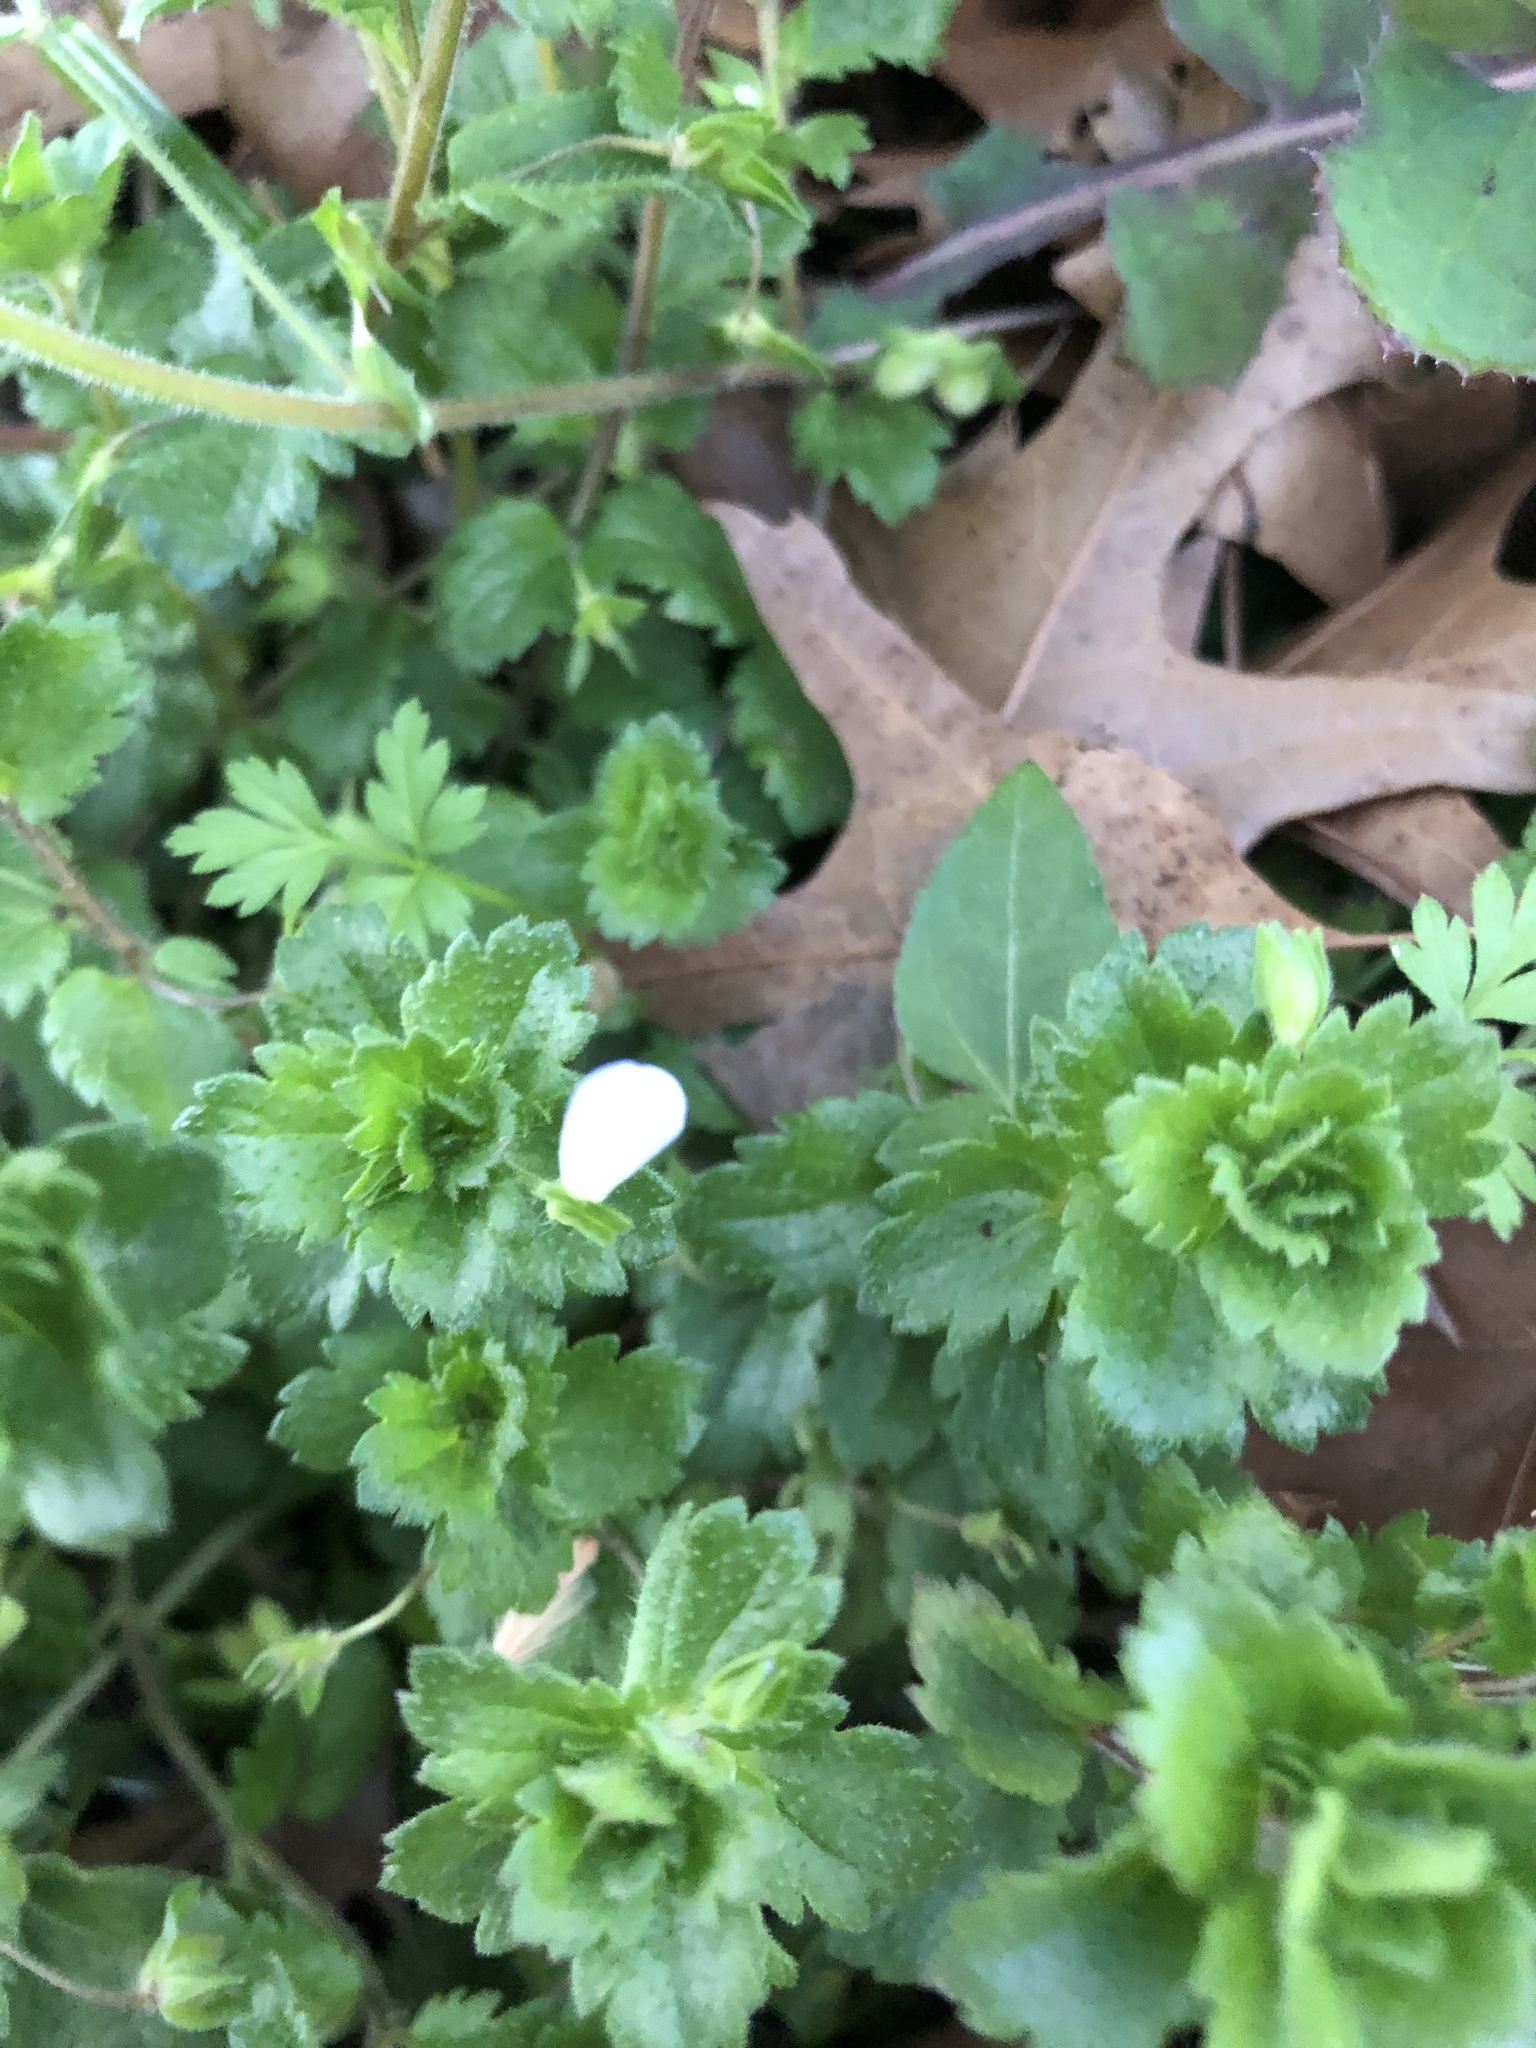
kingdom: Plantae
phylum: Tracheophyta
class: Magnoliopsida
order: Lamiales
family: Plantaginaceae
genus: Veronica
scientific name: Veronica persica
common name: Common field-speedwell
